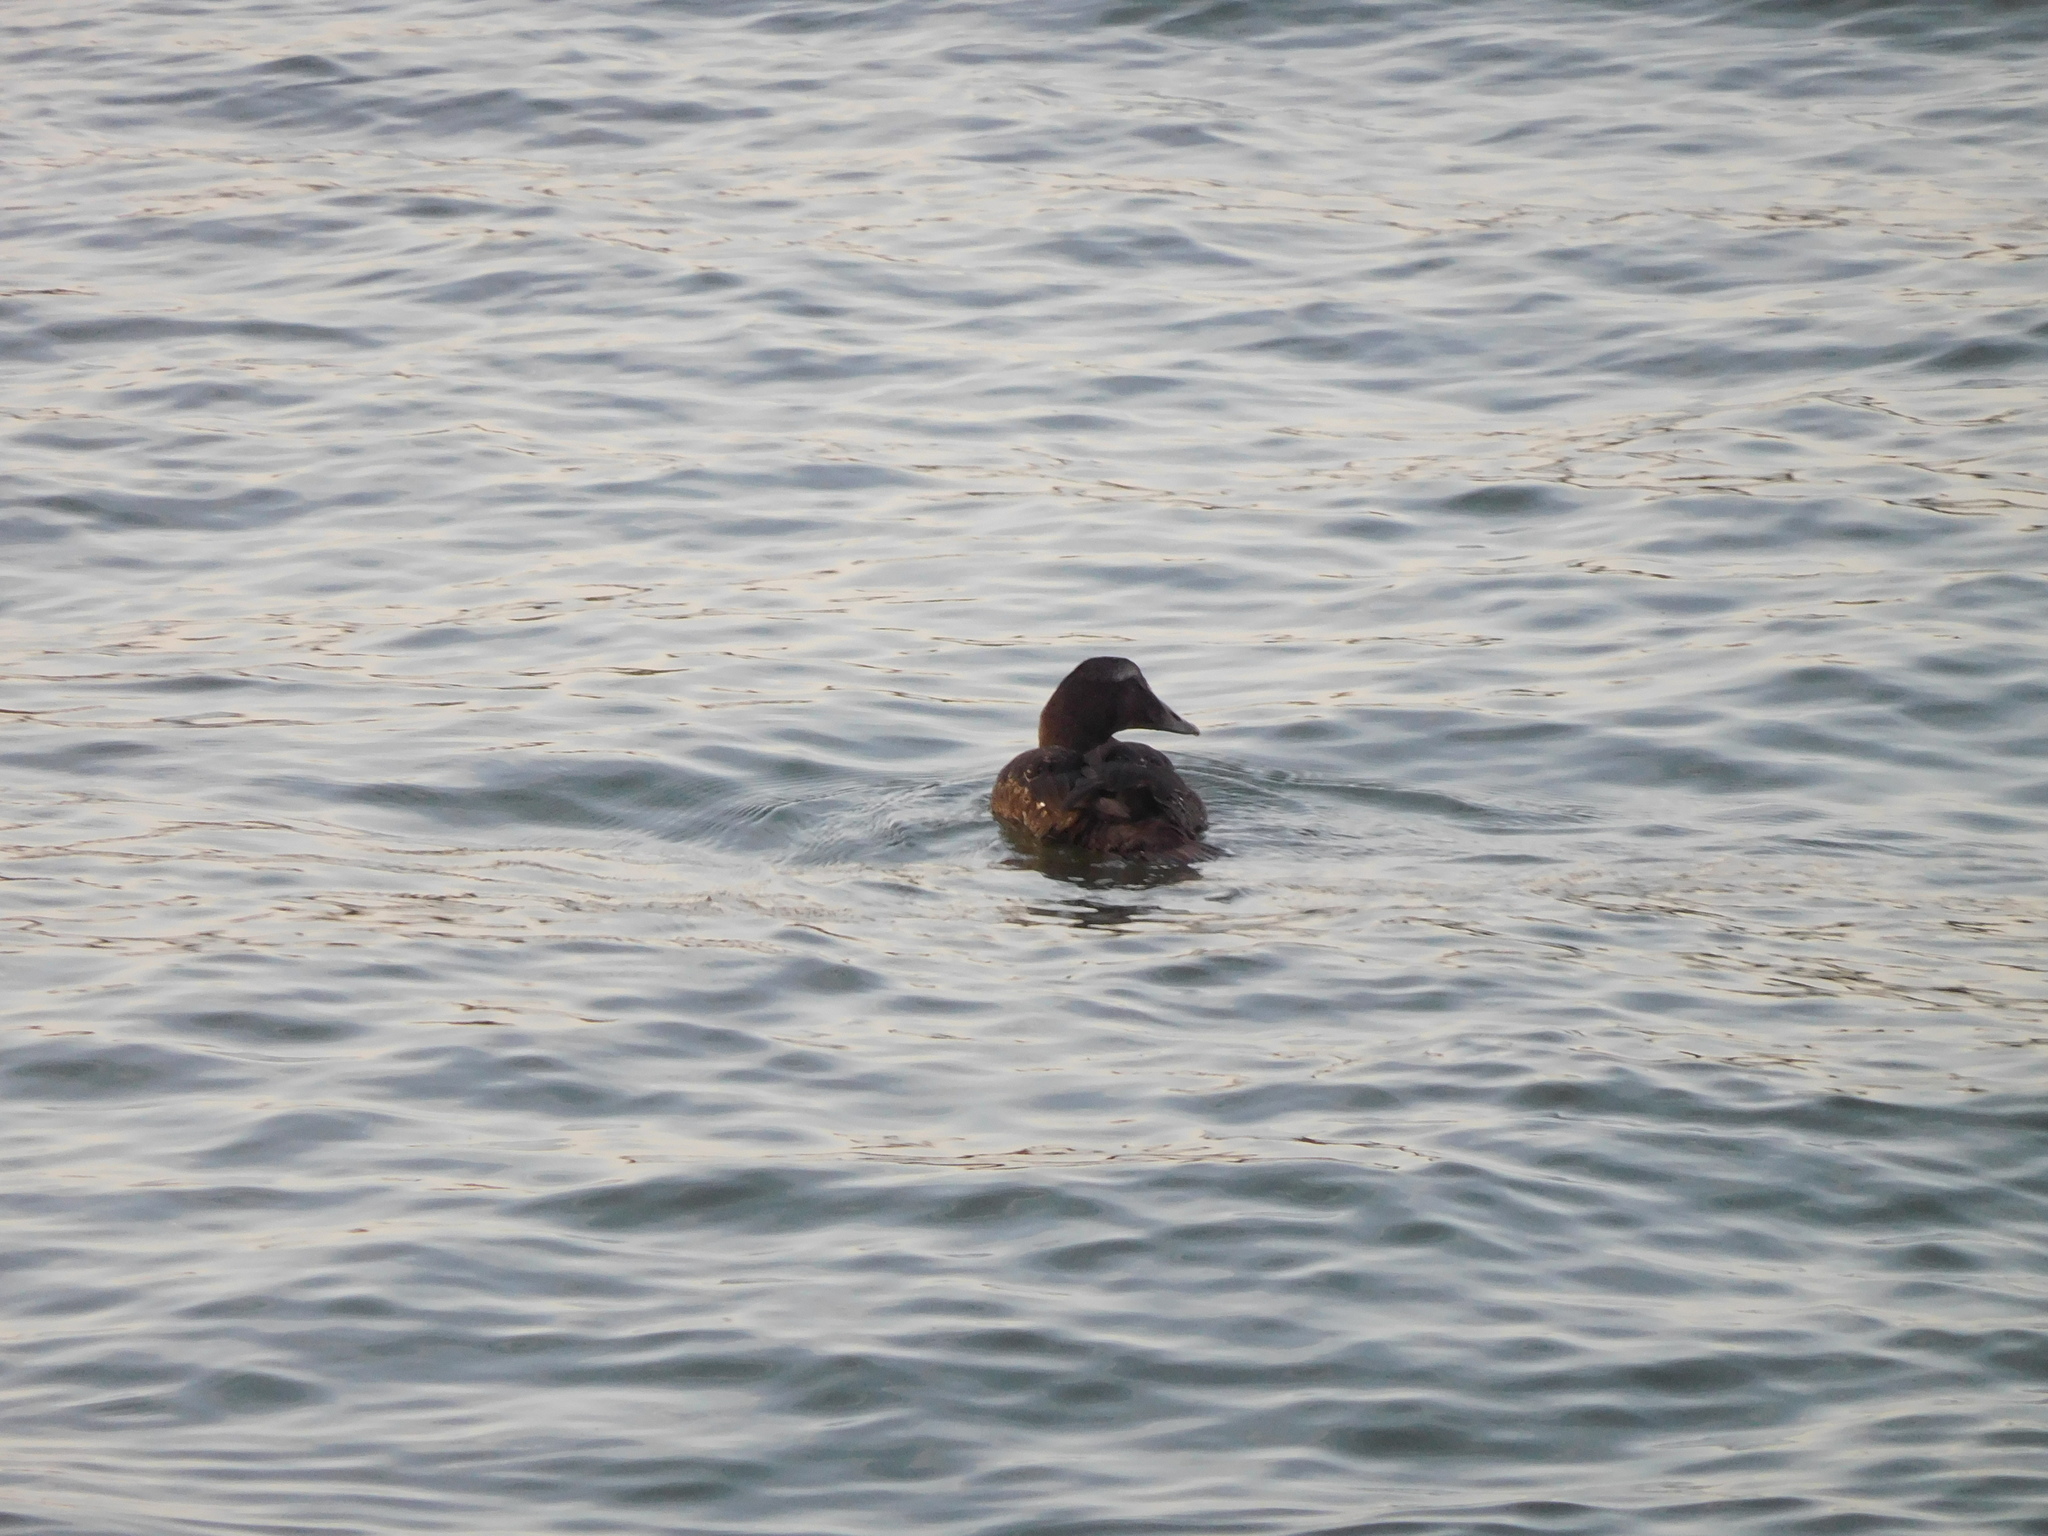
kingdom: Animalia
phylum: Chordata
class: Aves
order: Anseriformes
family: Anatidae
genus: Somateria
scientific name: Somateria mollissima
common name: Common eider
